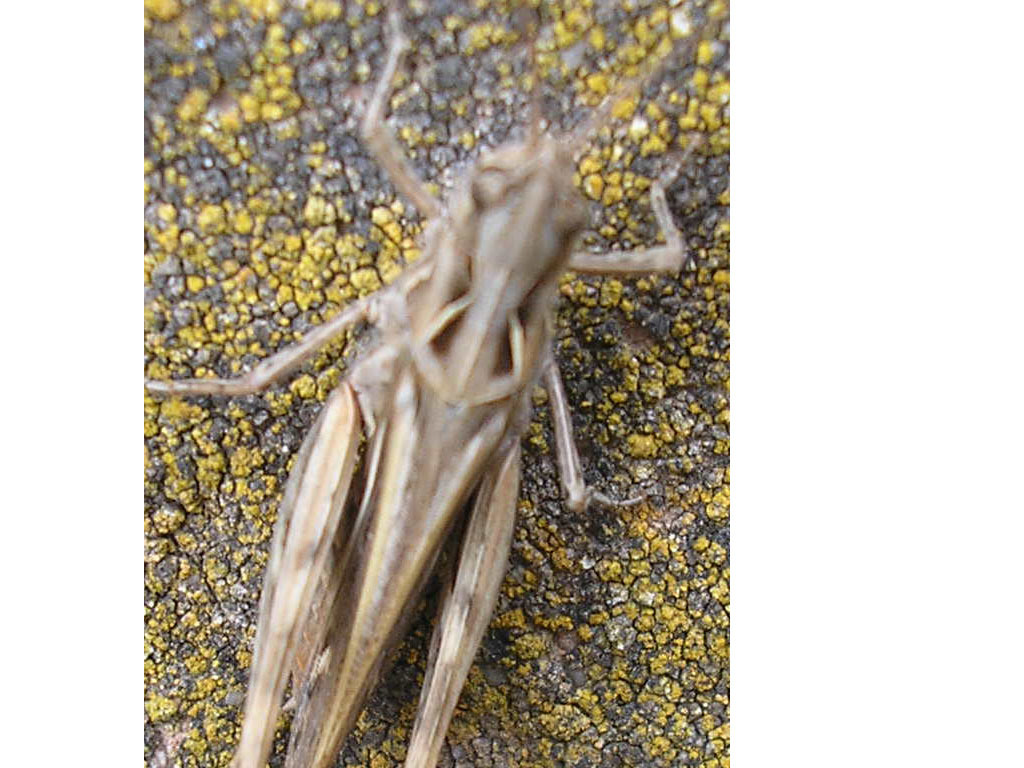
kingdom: Animalia
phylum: Arthropoda
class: Insecta
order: Orthoptera
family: Acrididae
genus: Chorthippus
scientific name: Chorthippus vagans
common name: Heath grasshopper
